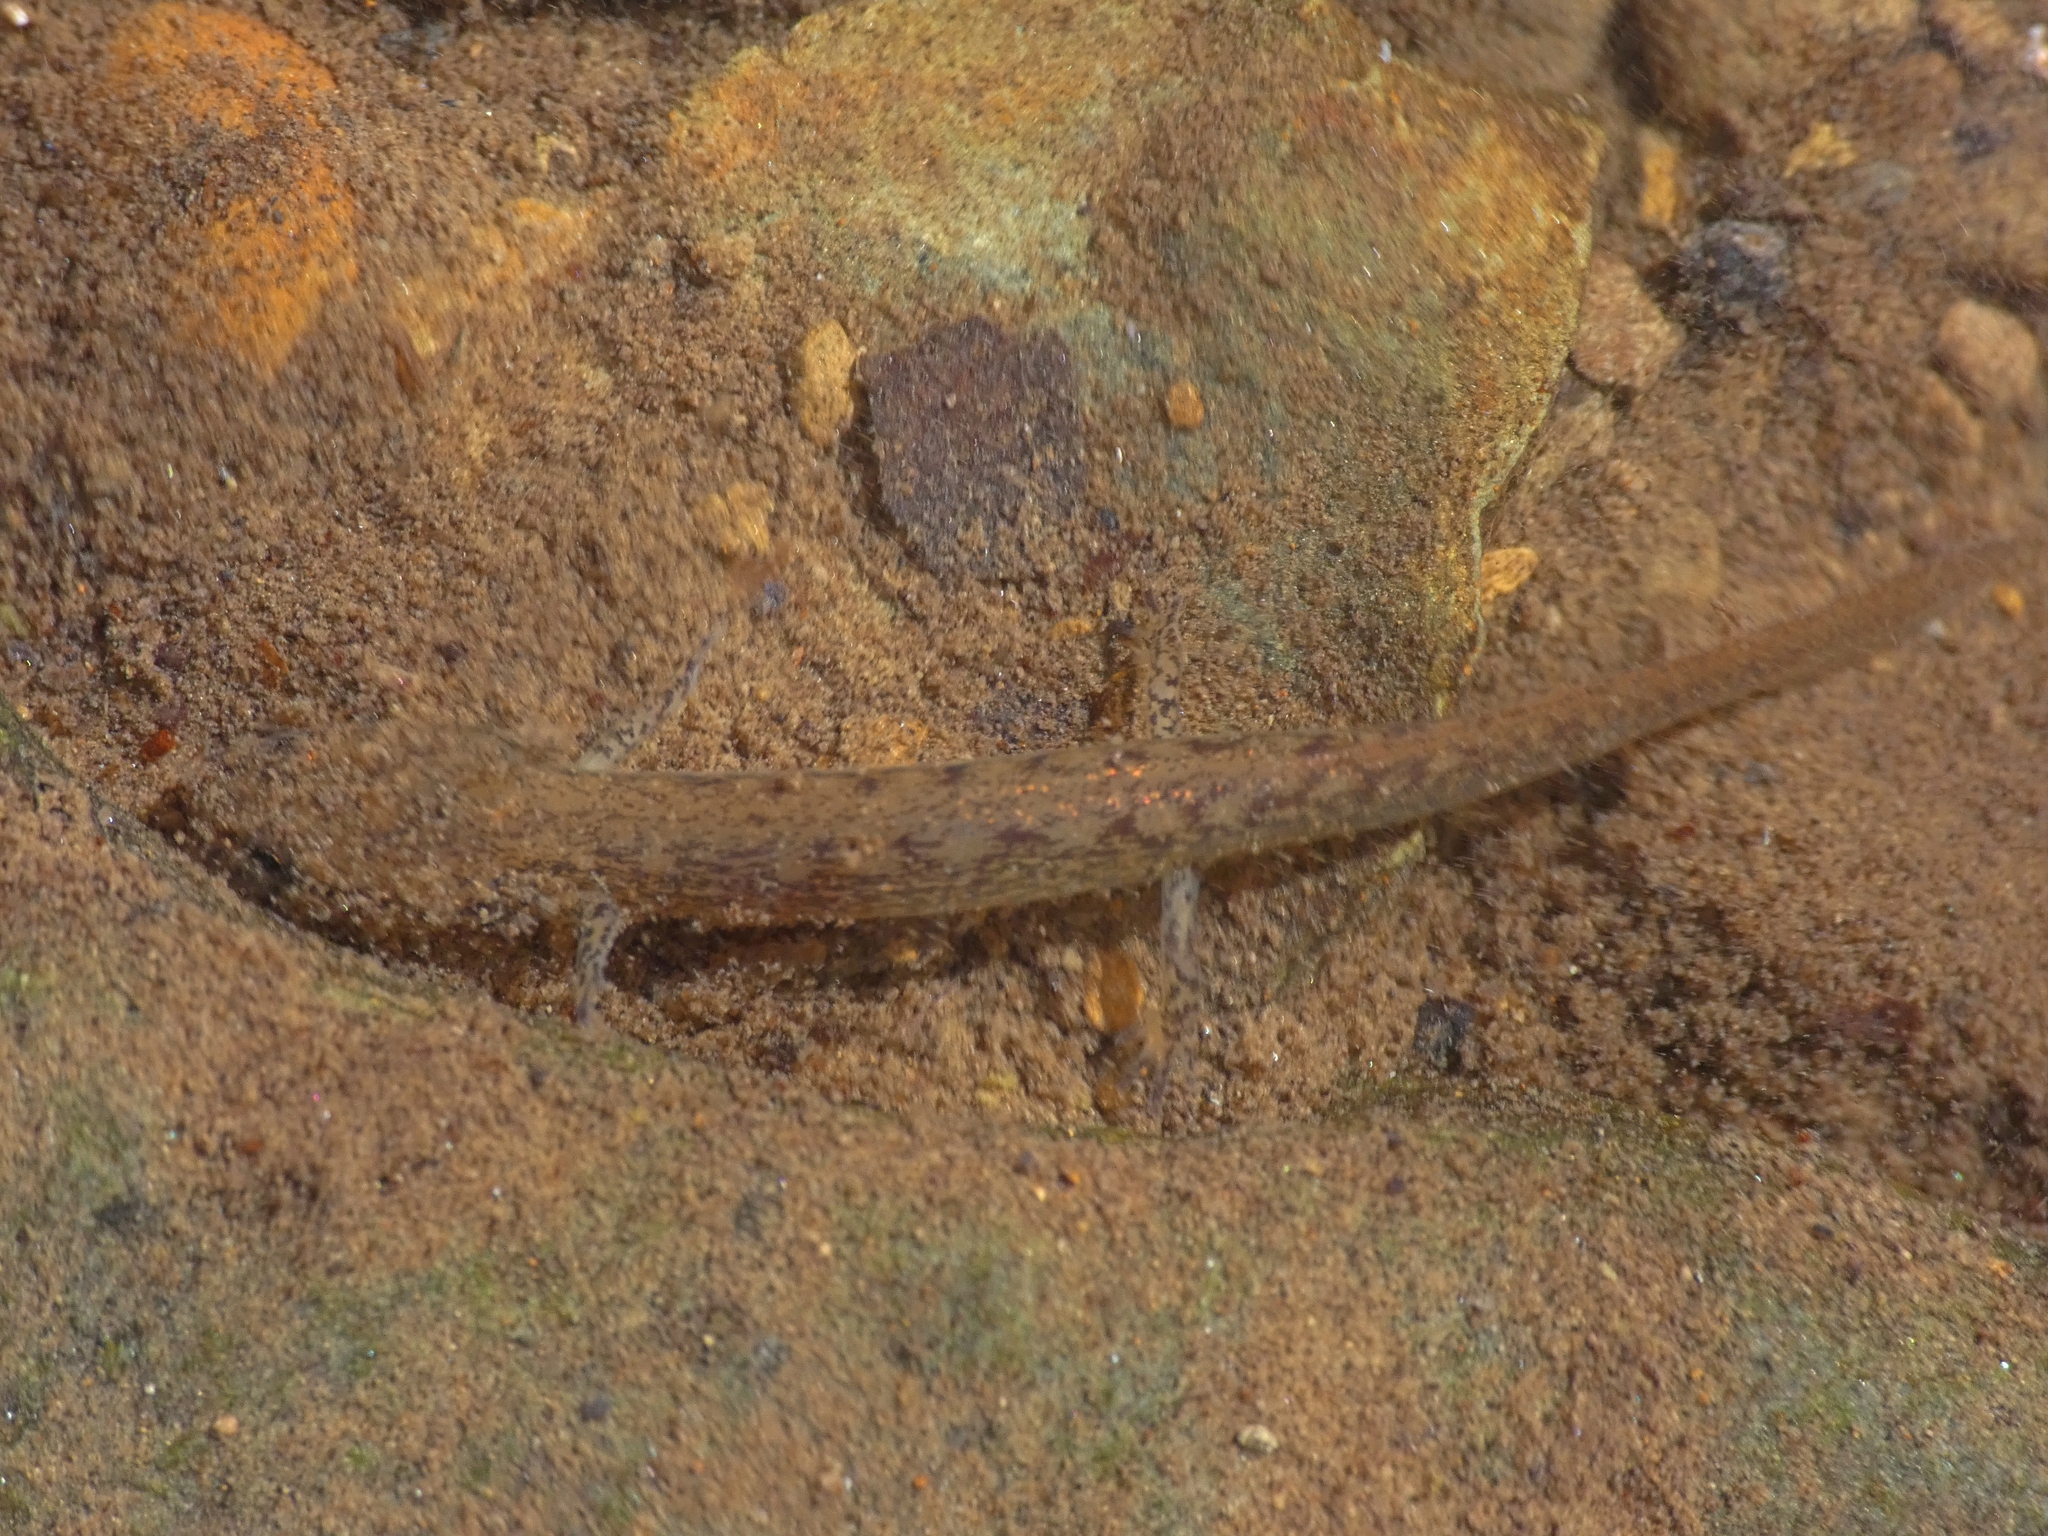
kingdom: Animalia
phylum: Chordata
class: Amphibia
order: Caudata
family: Plethodontidae
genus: Eurycea
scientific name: Eurycea bislineata
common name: Northern two-lined salamander
